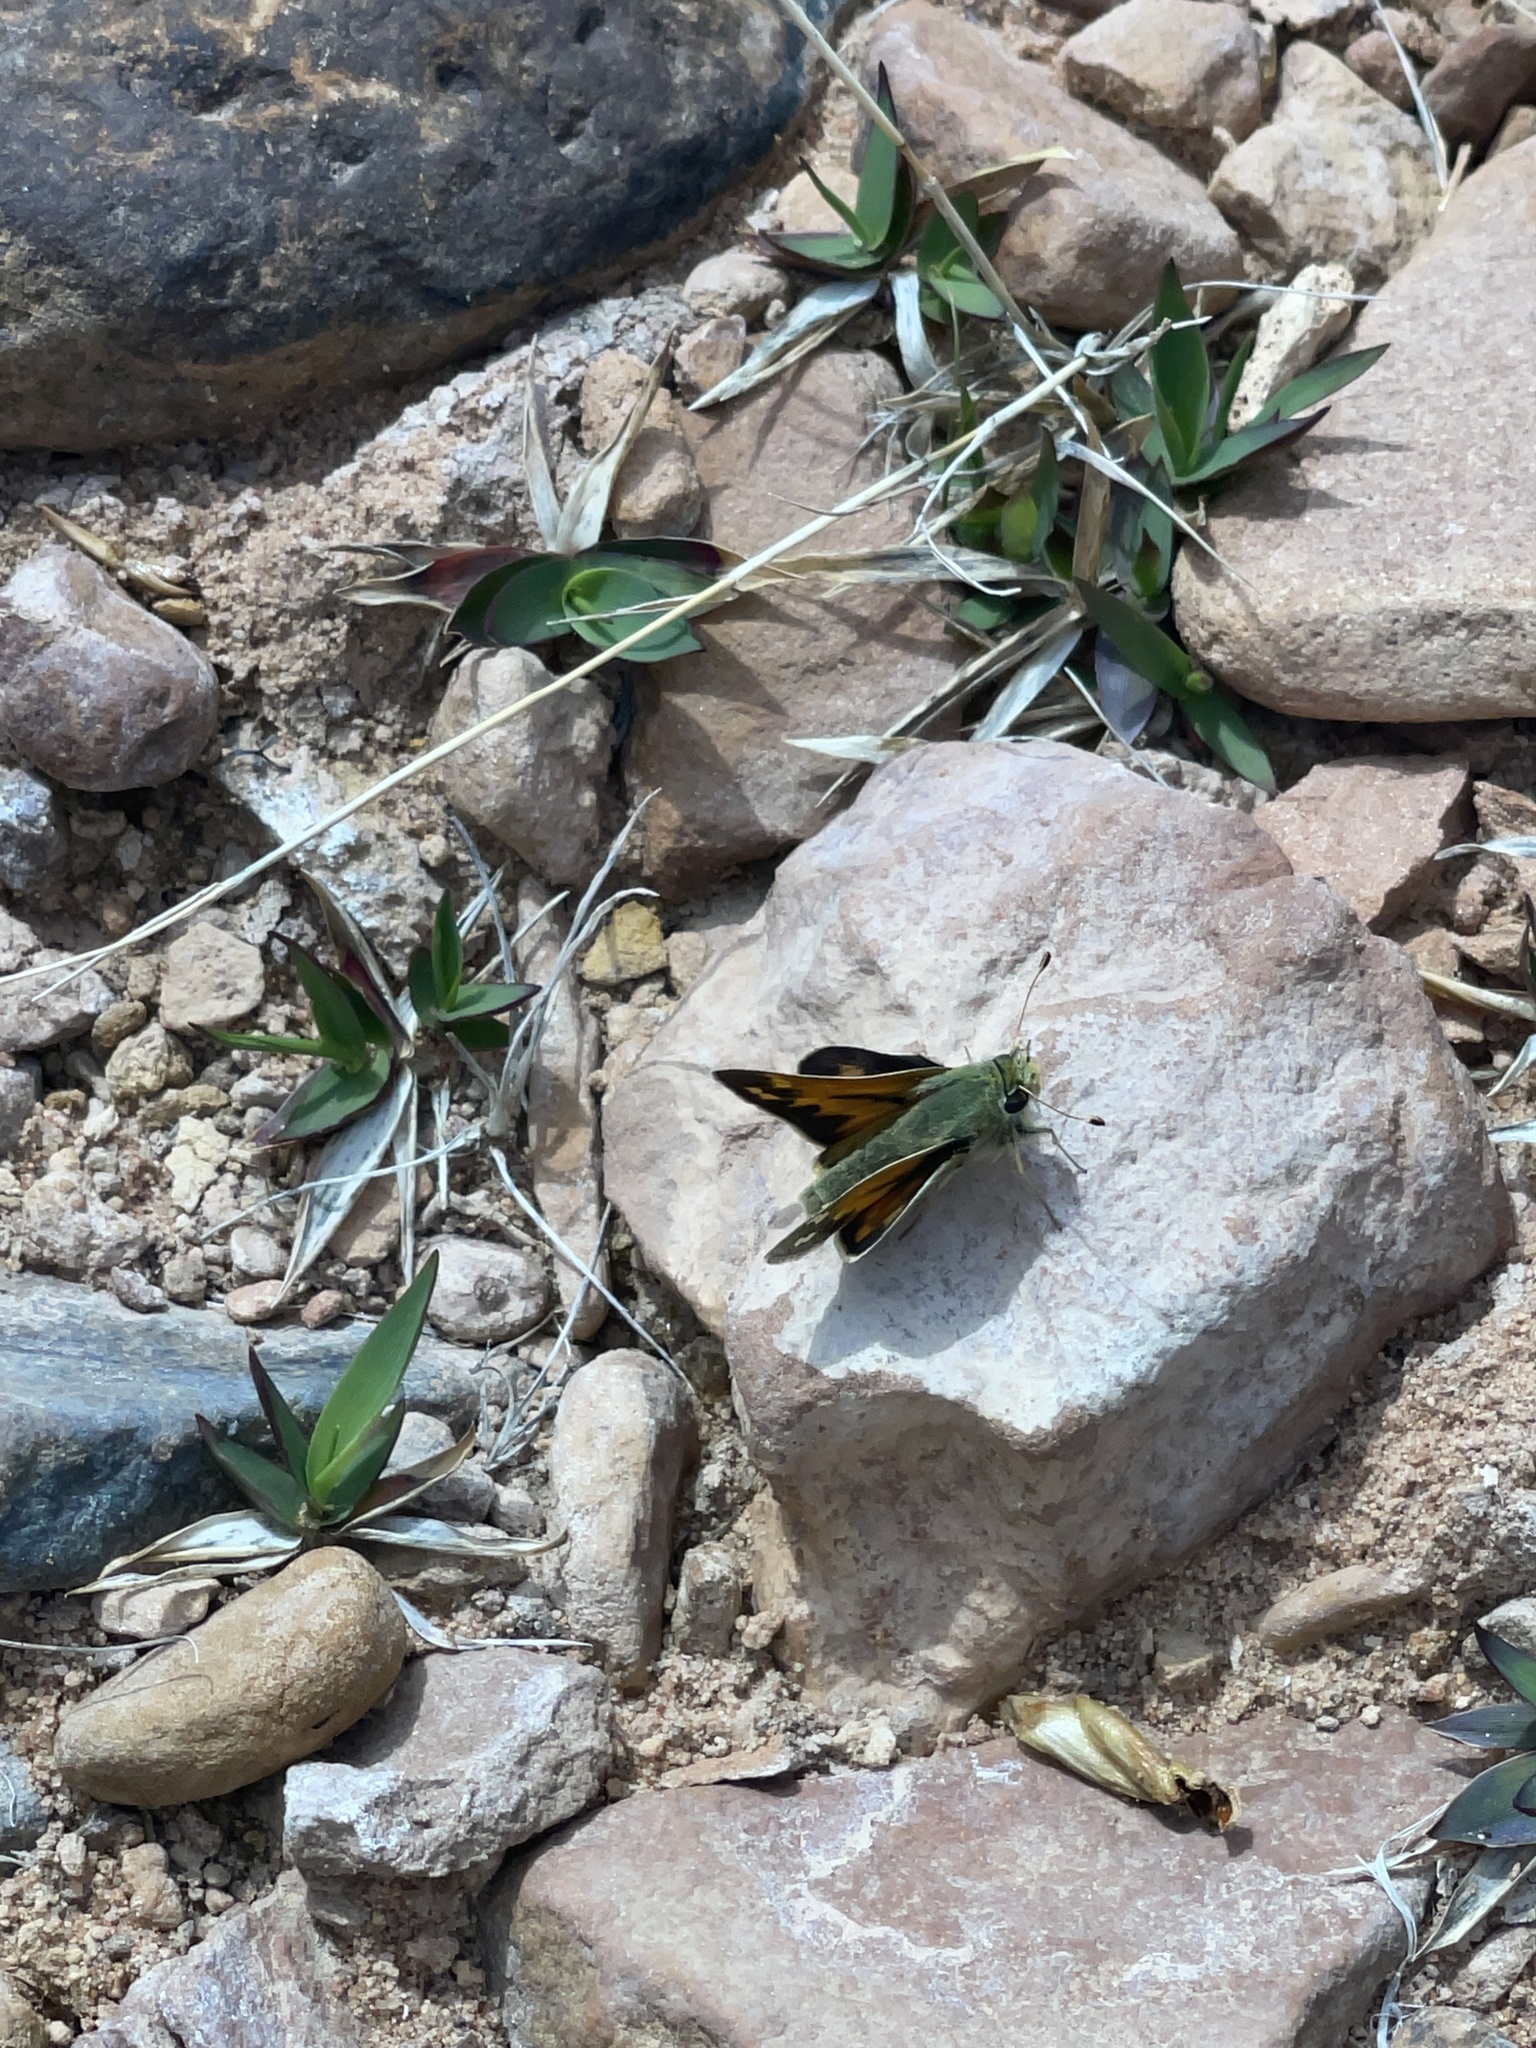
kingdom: Animalia
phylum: Arthropoda
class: Insecta
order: Lepidoptera
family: Hesperiidae
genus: Hesperia
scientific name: Hesperia juba
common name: Juba skipper
